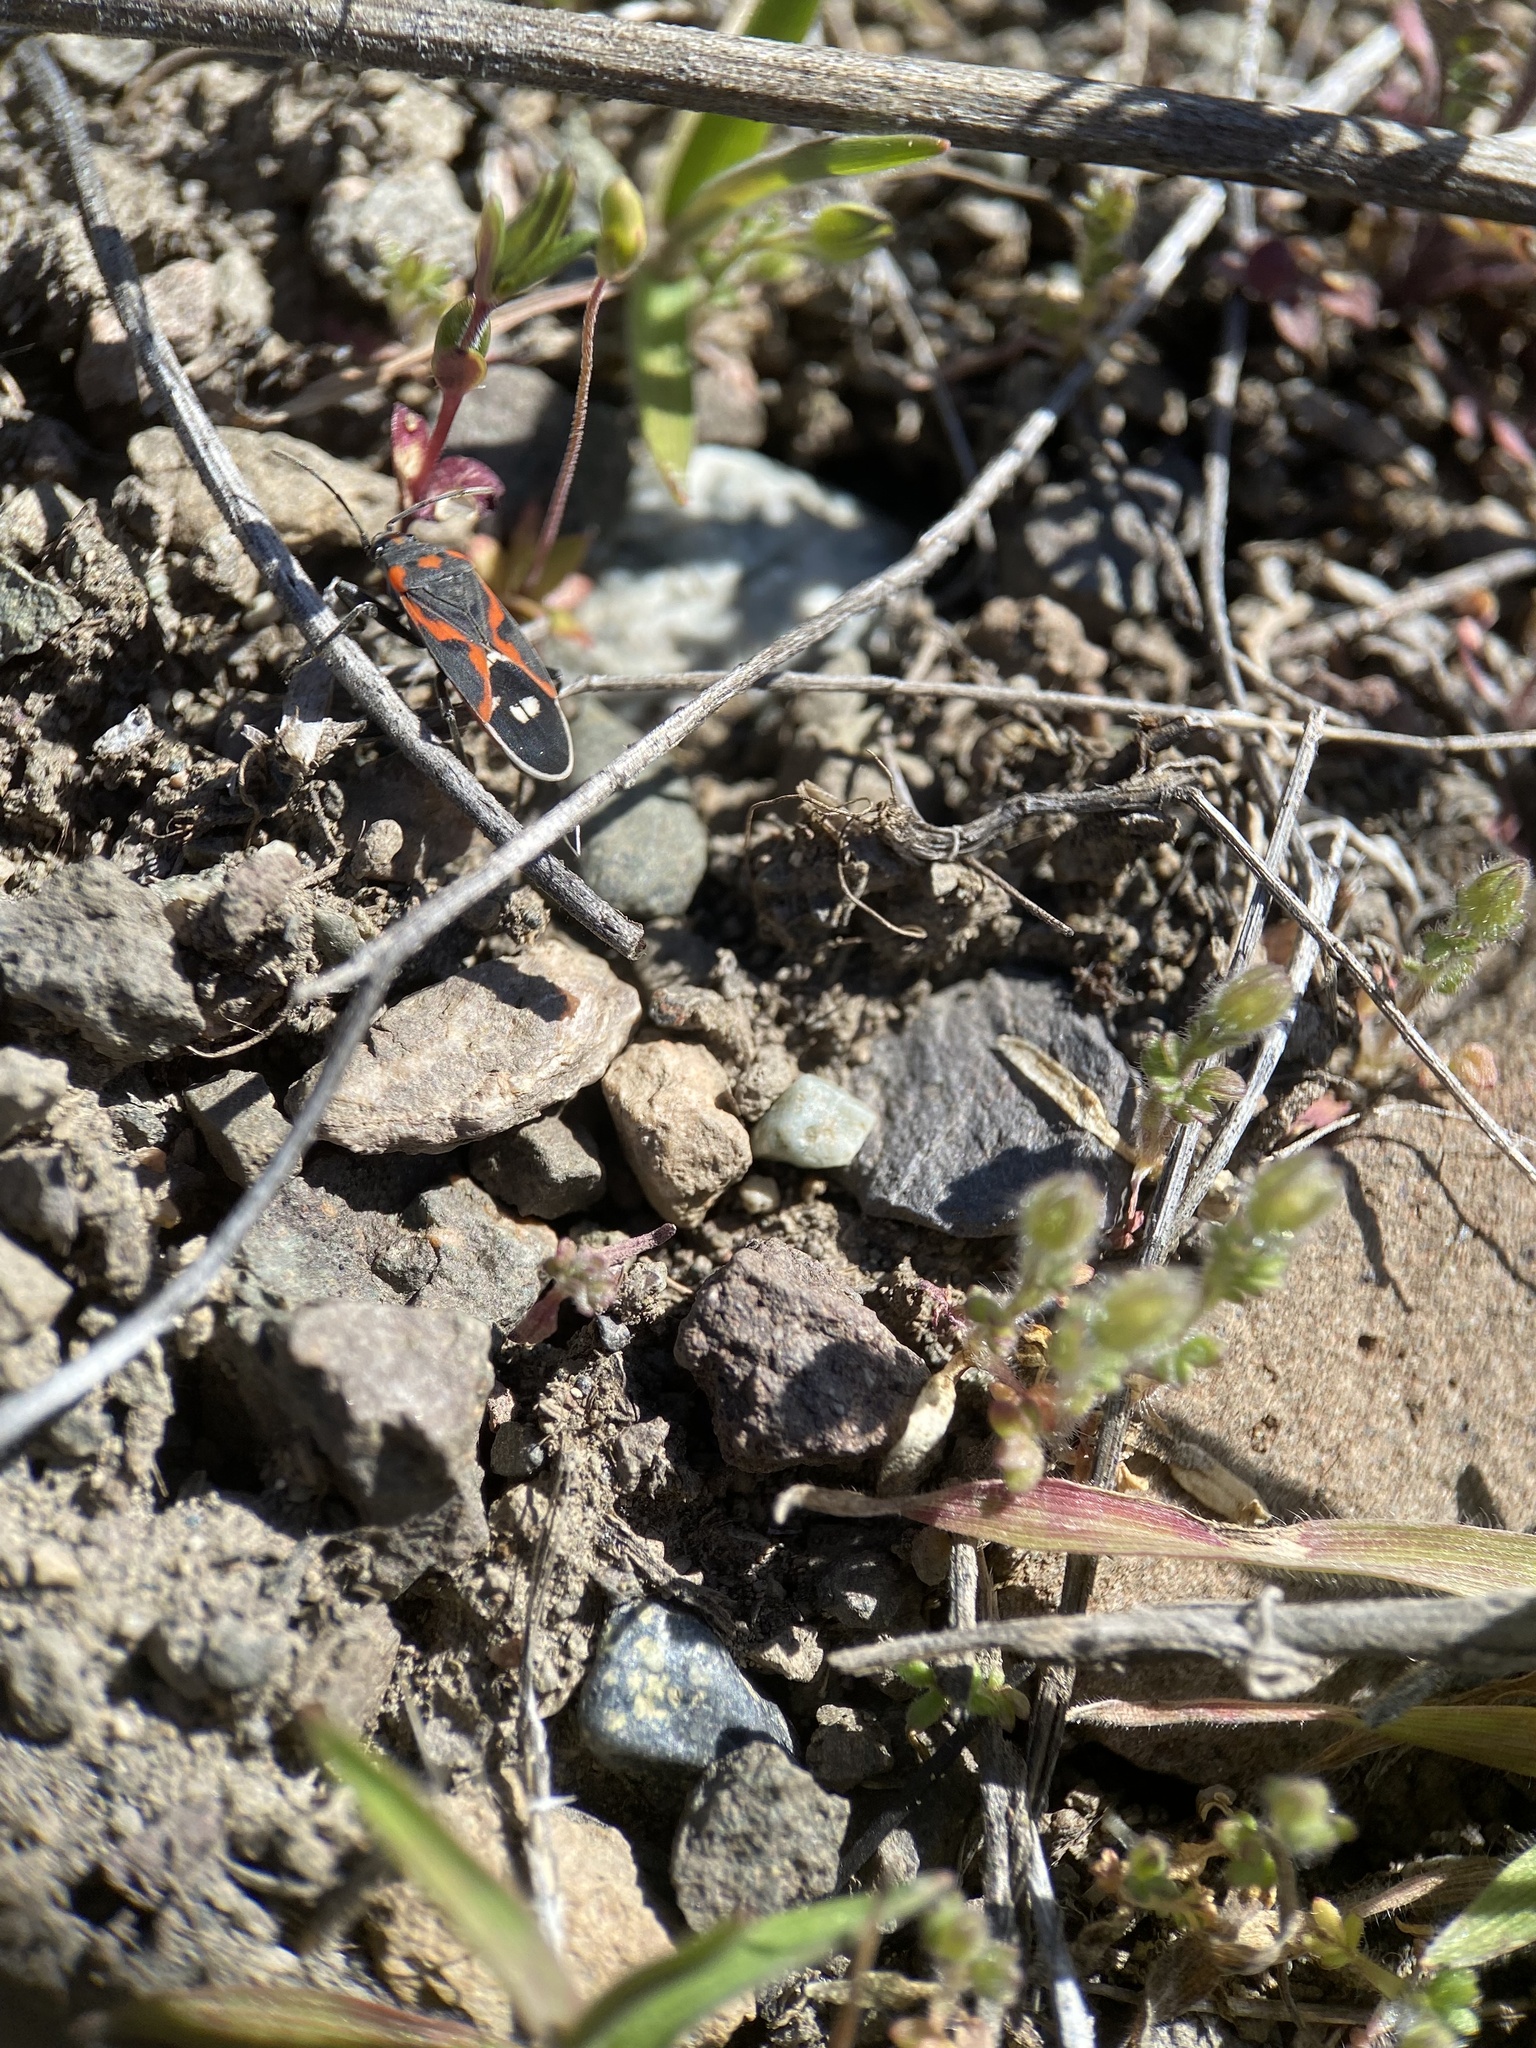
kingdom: Animalia
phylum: Arthropoda
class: Insecta
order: Hemiptera
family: Lygaeidae
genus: Lygaeus
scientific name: Lygaeus kalmii
